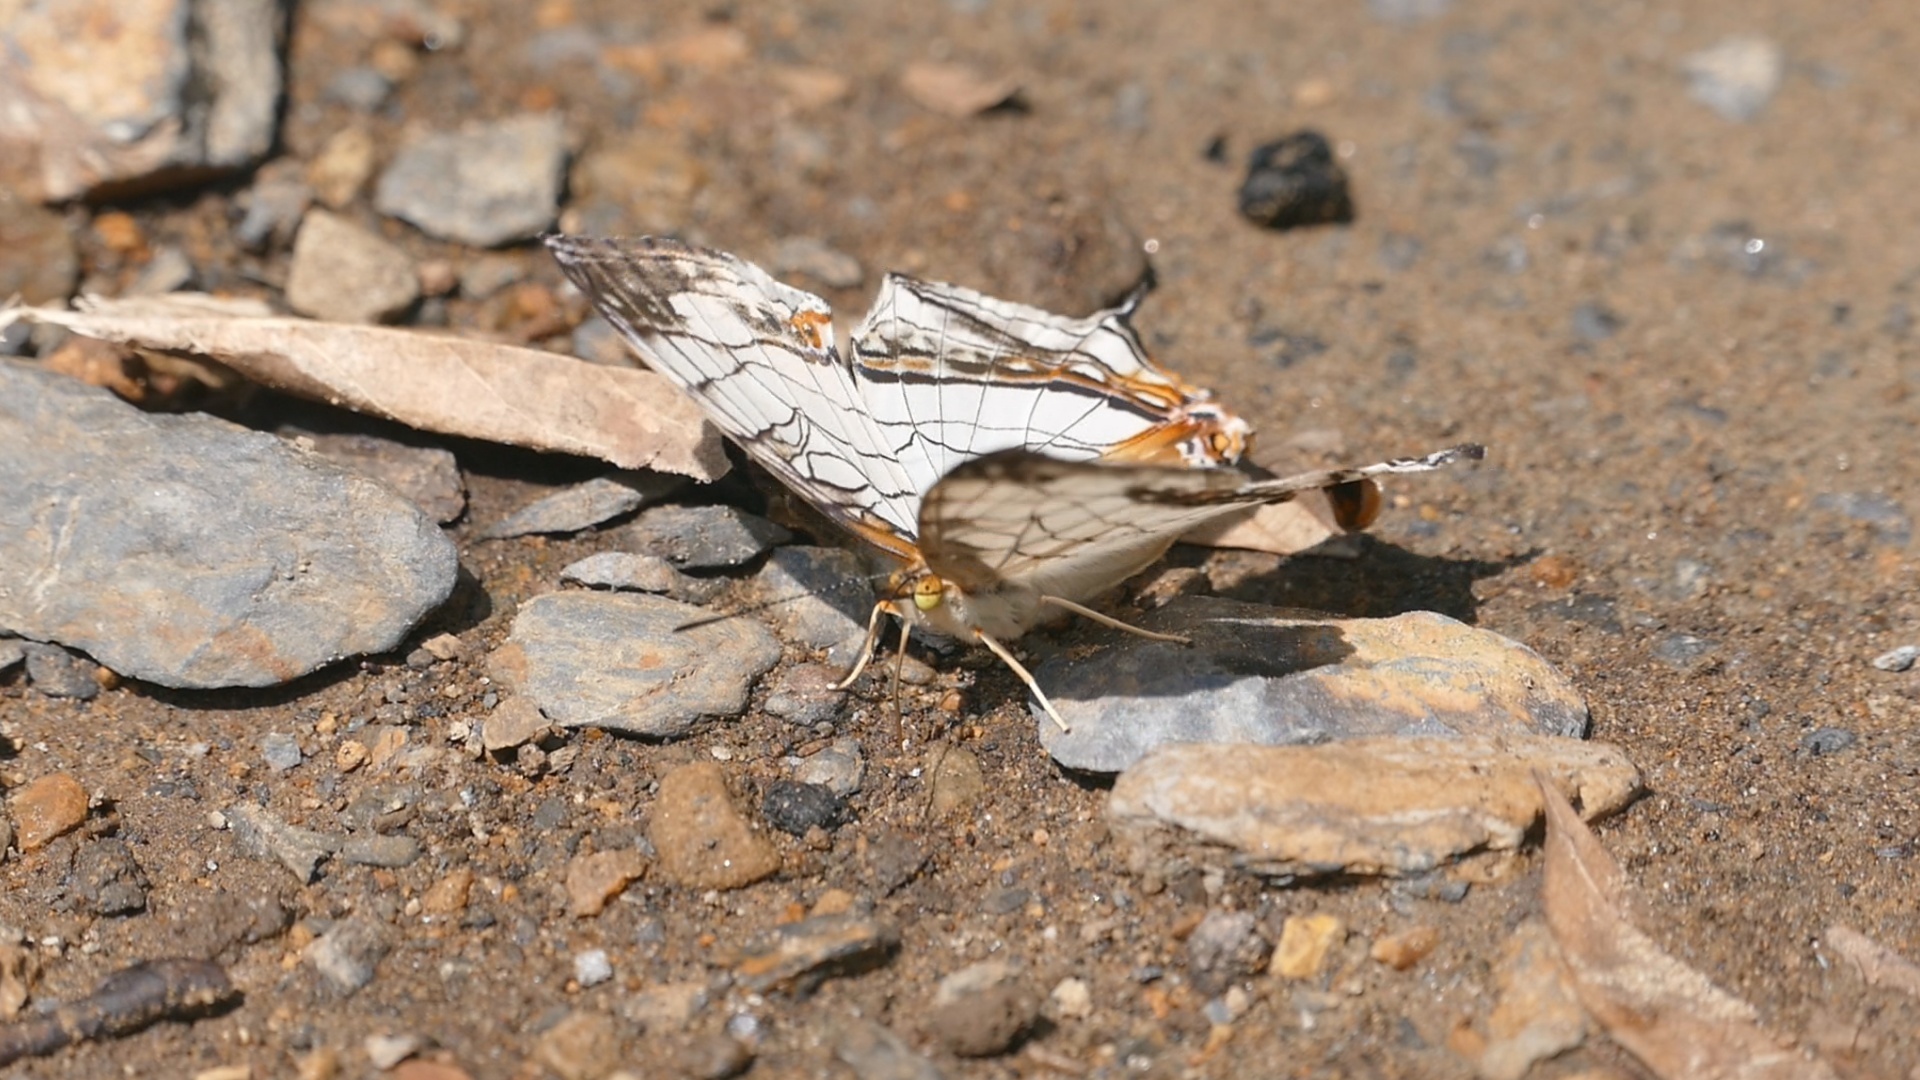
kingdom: Animalia
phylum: Arthropoda
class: Insecta
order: Lepidoptera
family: Nymphalidae
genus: Cyrestis
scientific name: Cyrestis thyodamas
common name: Common mapwing
